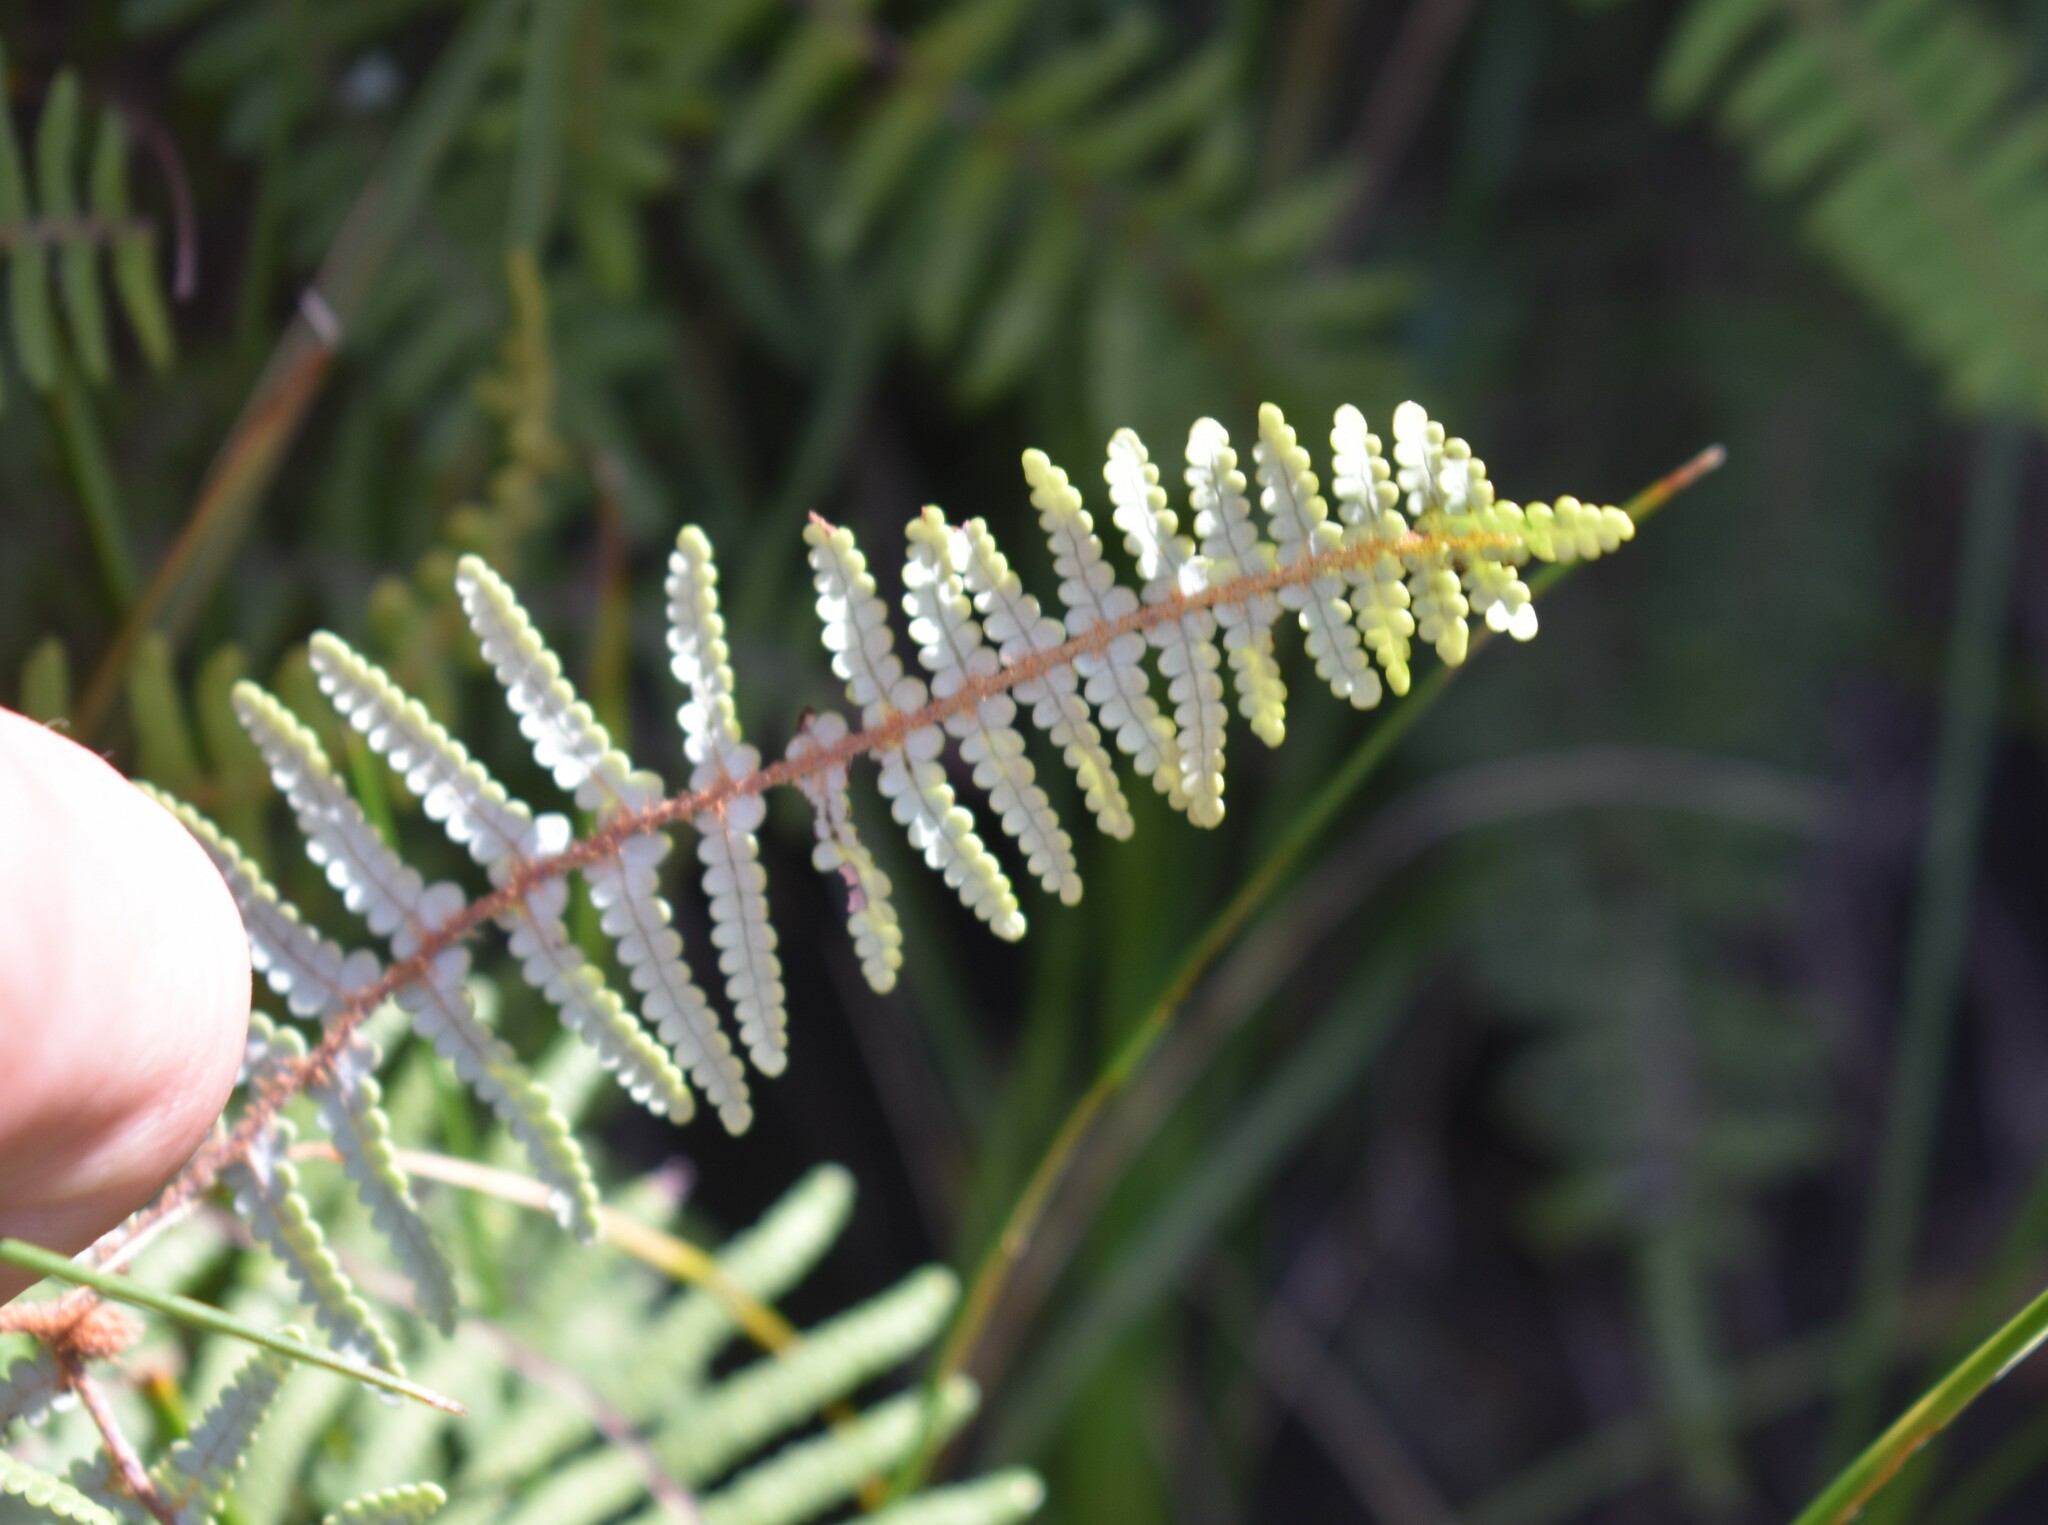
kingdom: Plantae
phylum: Tracheophyta
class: Polypodiopsida
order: Gleicheniales
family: Gleicheniaceae
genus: Gleichenia
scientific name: Gleichenia polypodioides
